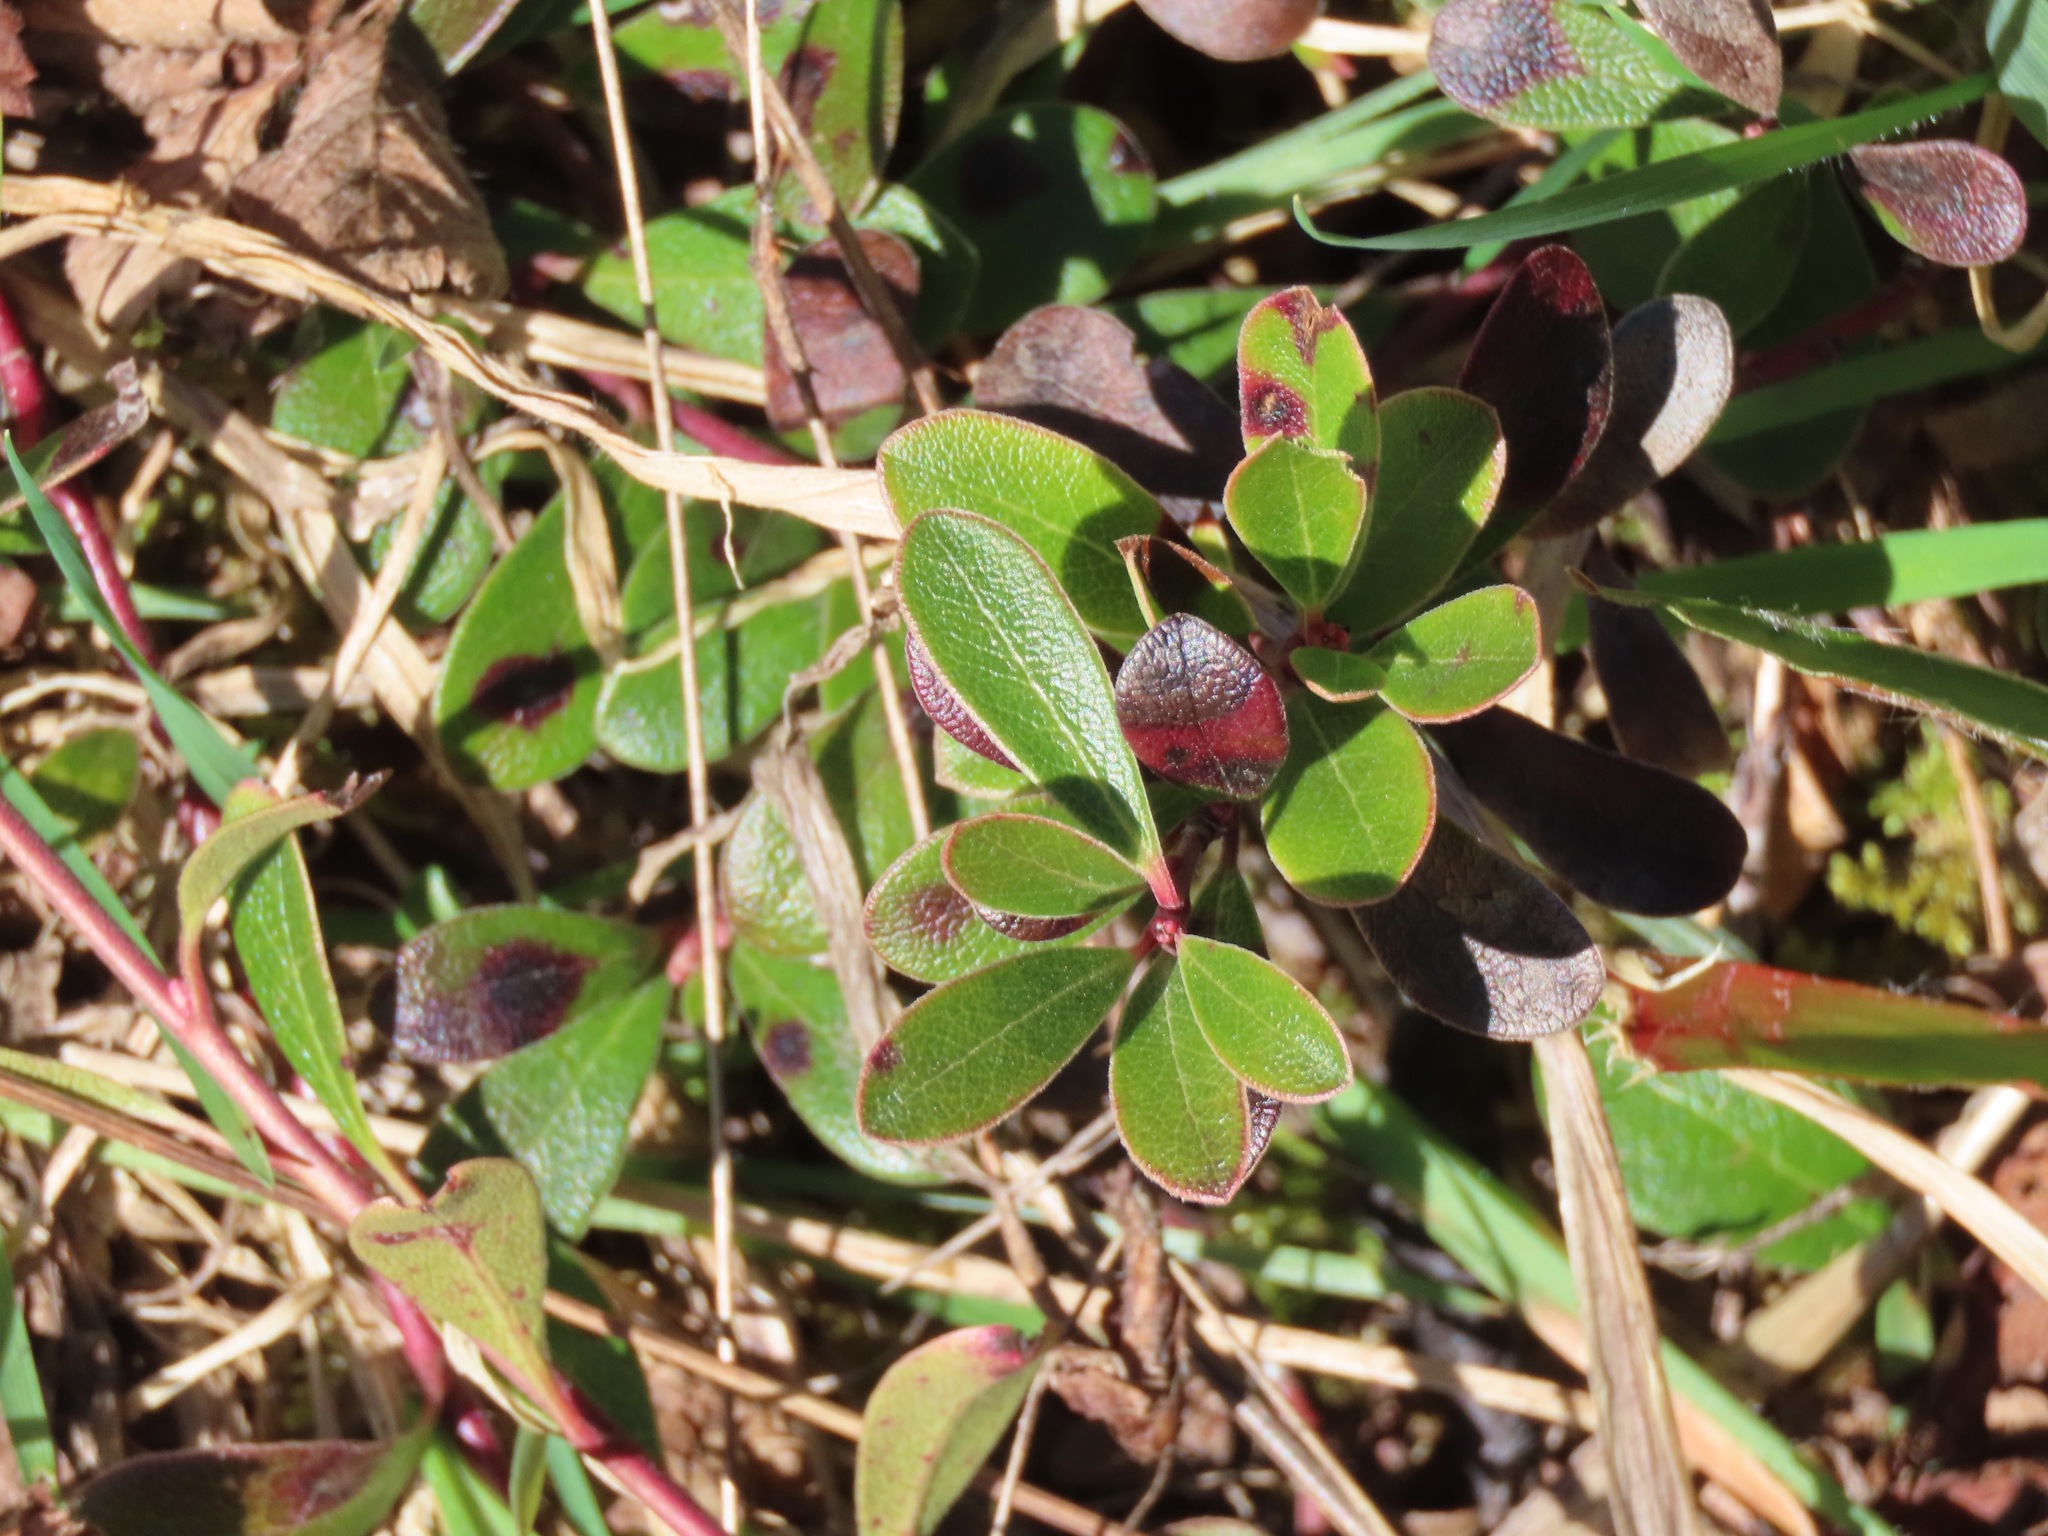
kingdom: Plantae
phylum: Tracheophyta
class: Magnoliopsida
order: Ericales
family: Ericaceae
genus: Arctostaphylos
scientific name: Arctostaphylos uva-ursi
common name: Bearberry
